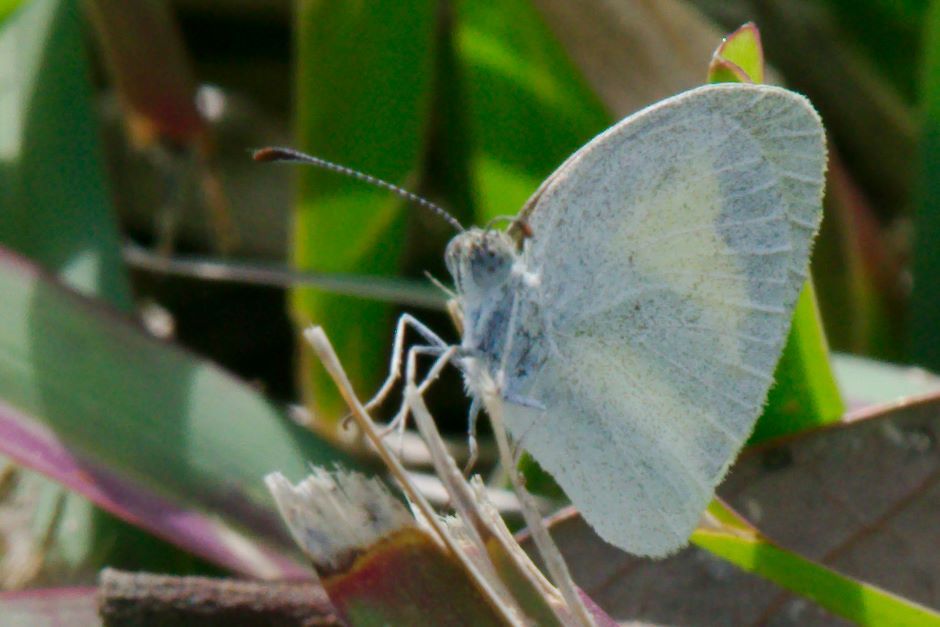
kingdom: Animalia
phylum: Arthropoda
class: Insecta
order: Lepidoptera
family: Pieridae
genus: Eurema
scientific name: Eurema daira
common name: Barred sulphur
